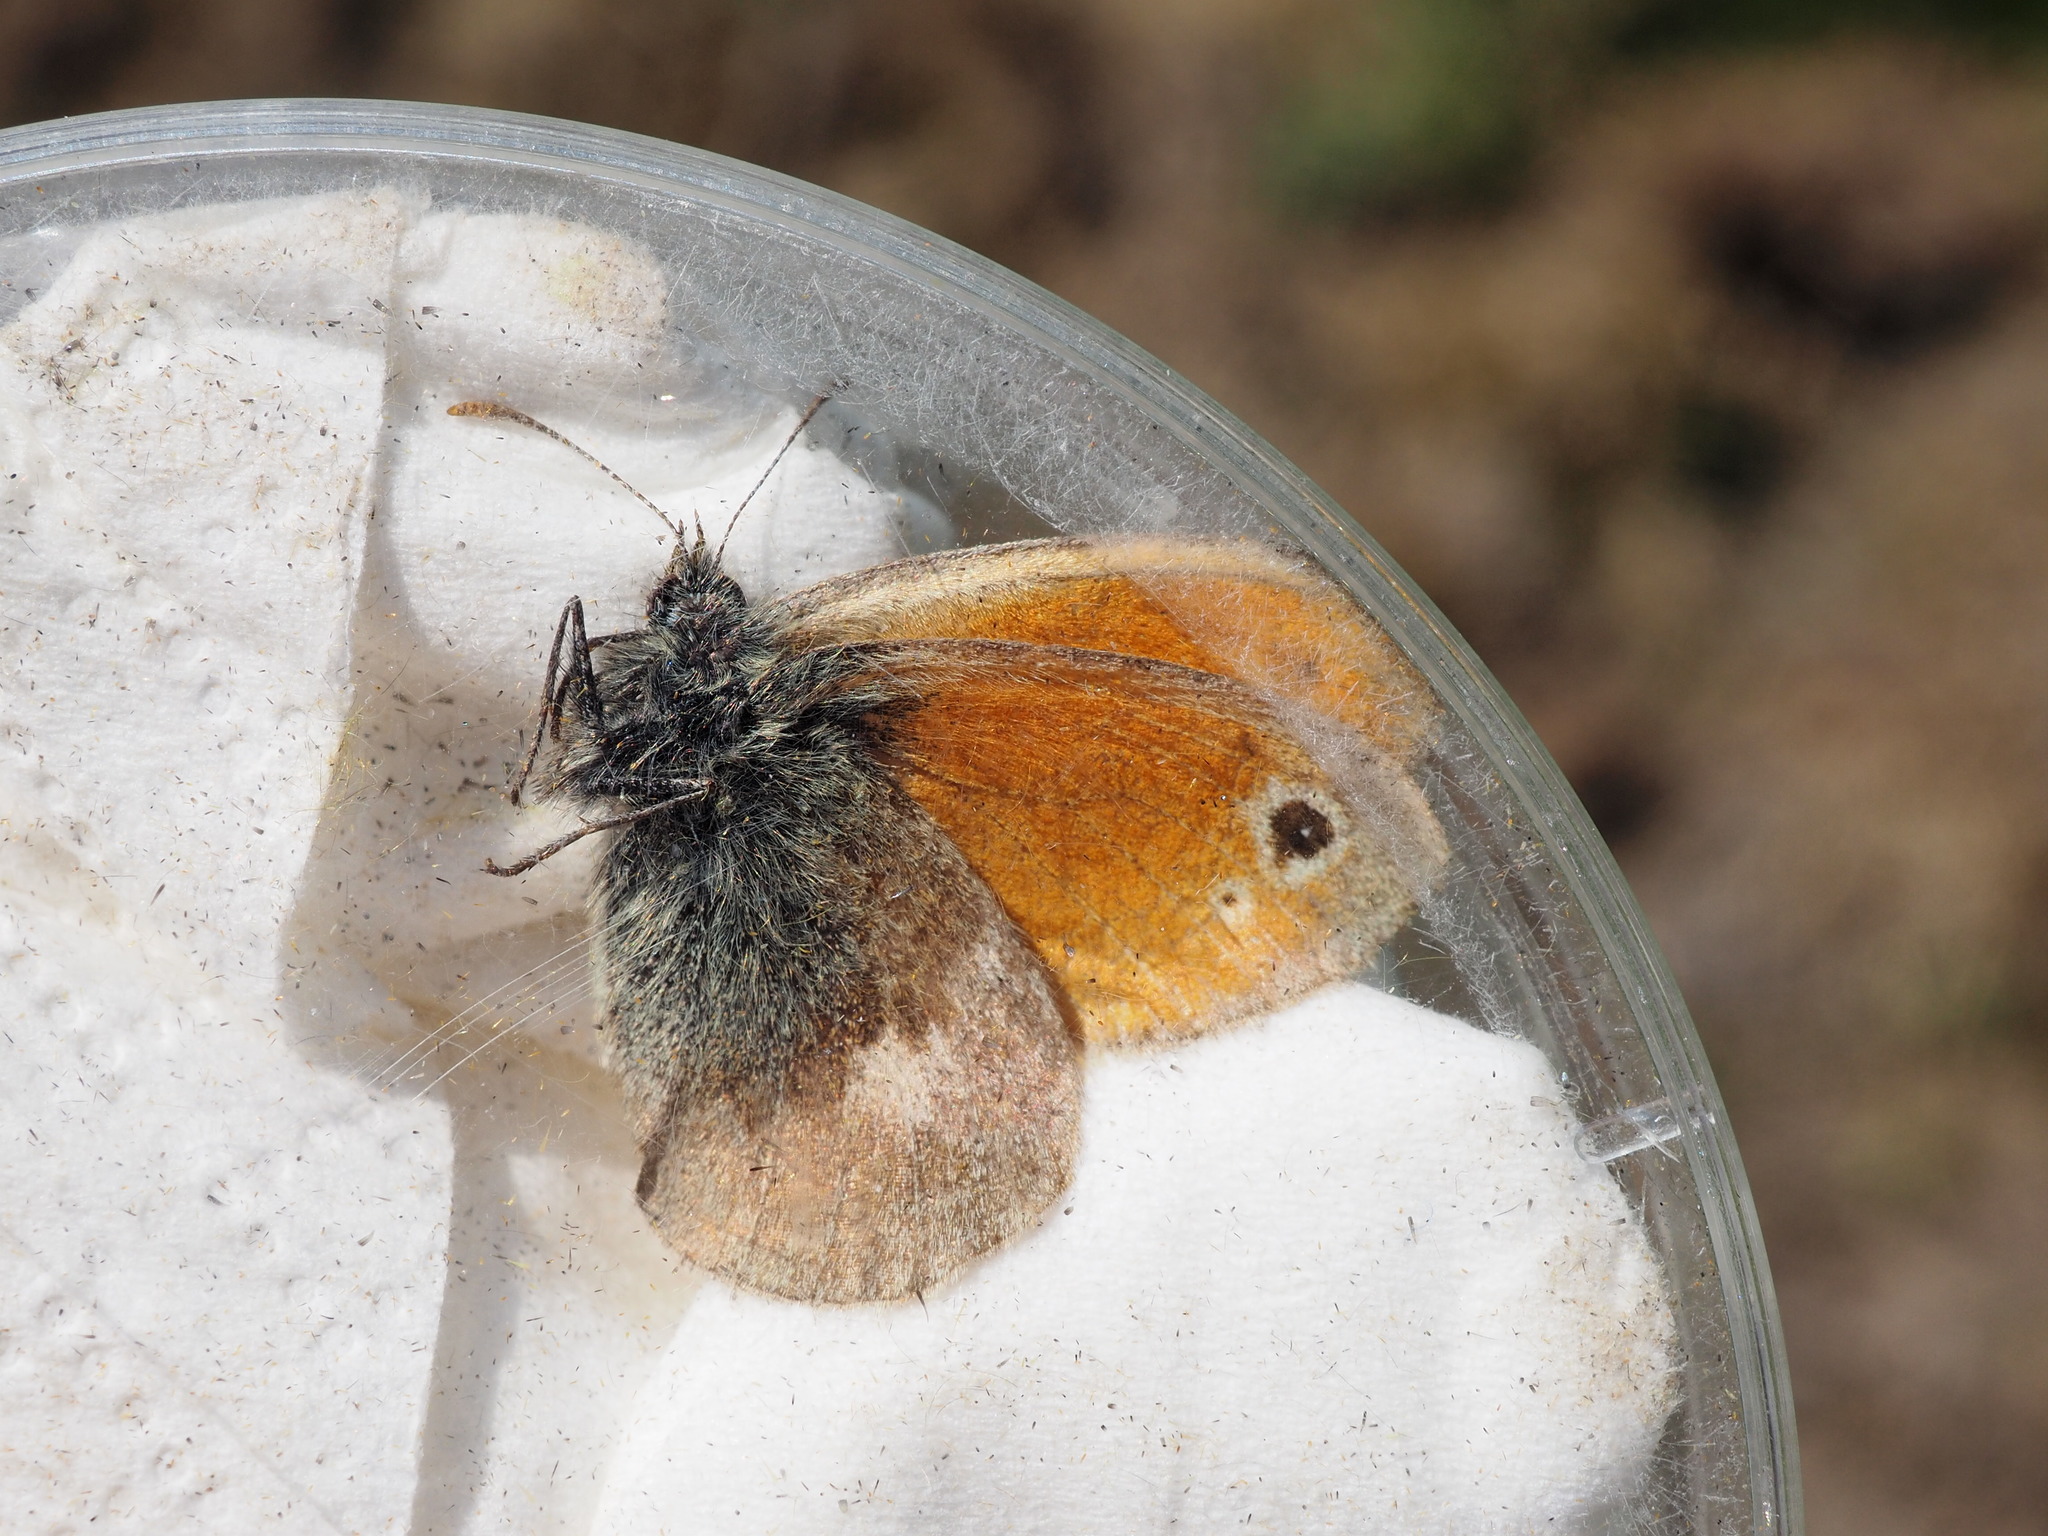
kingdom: Animalia
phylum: Arthropoda
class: Insecta
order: Lepidoptera
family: Nymphalidae
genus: Coenonympha
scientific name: Coenonympha pamphilus
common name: Small heath
